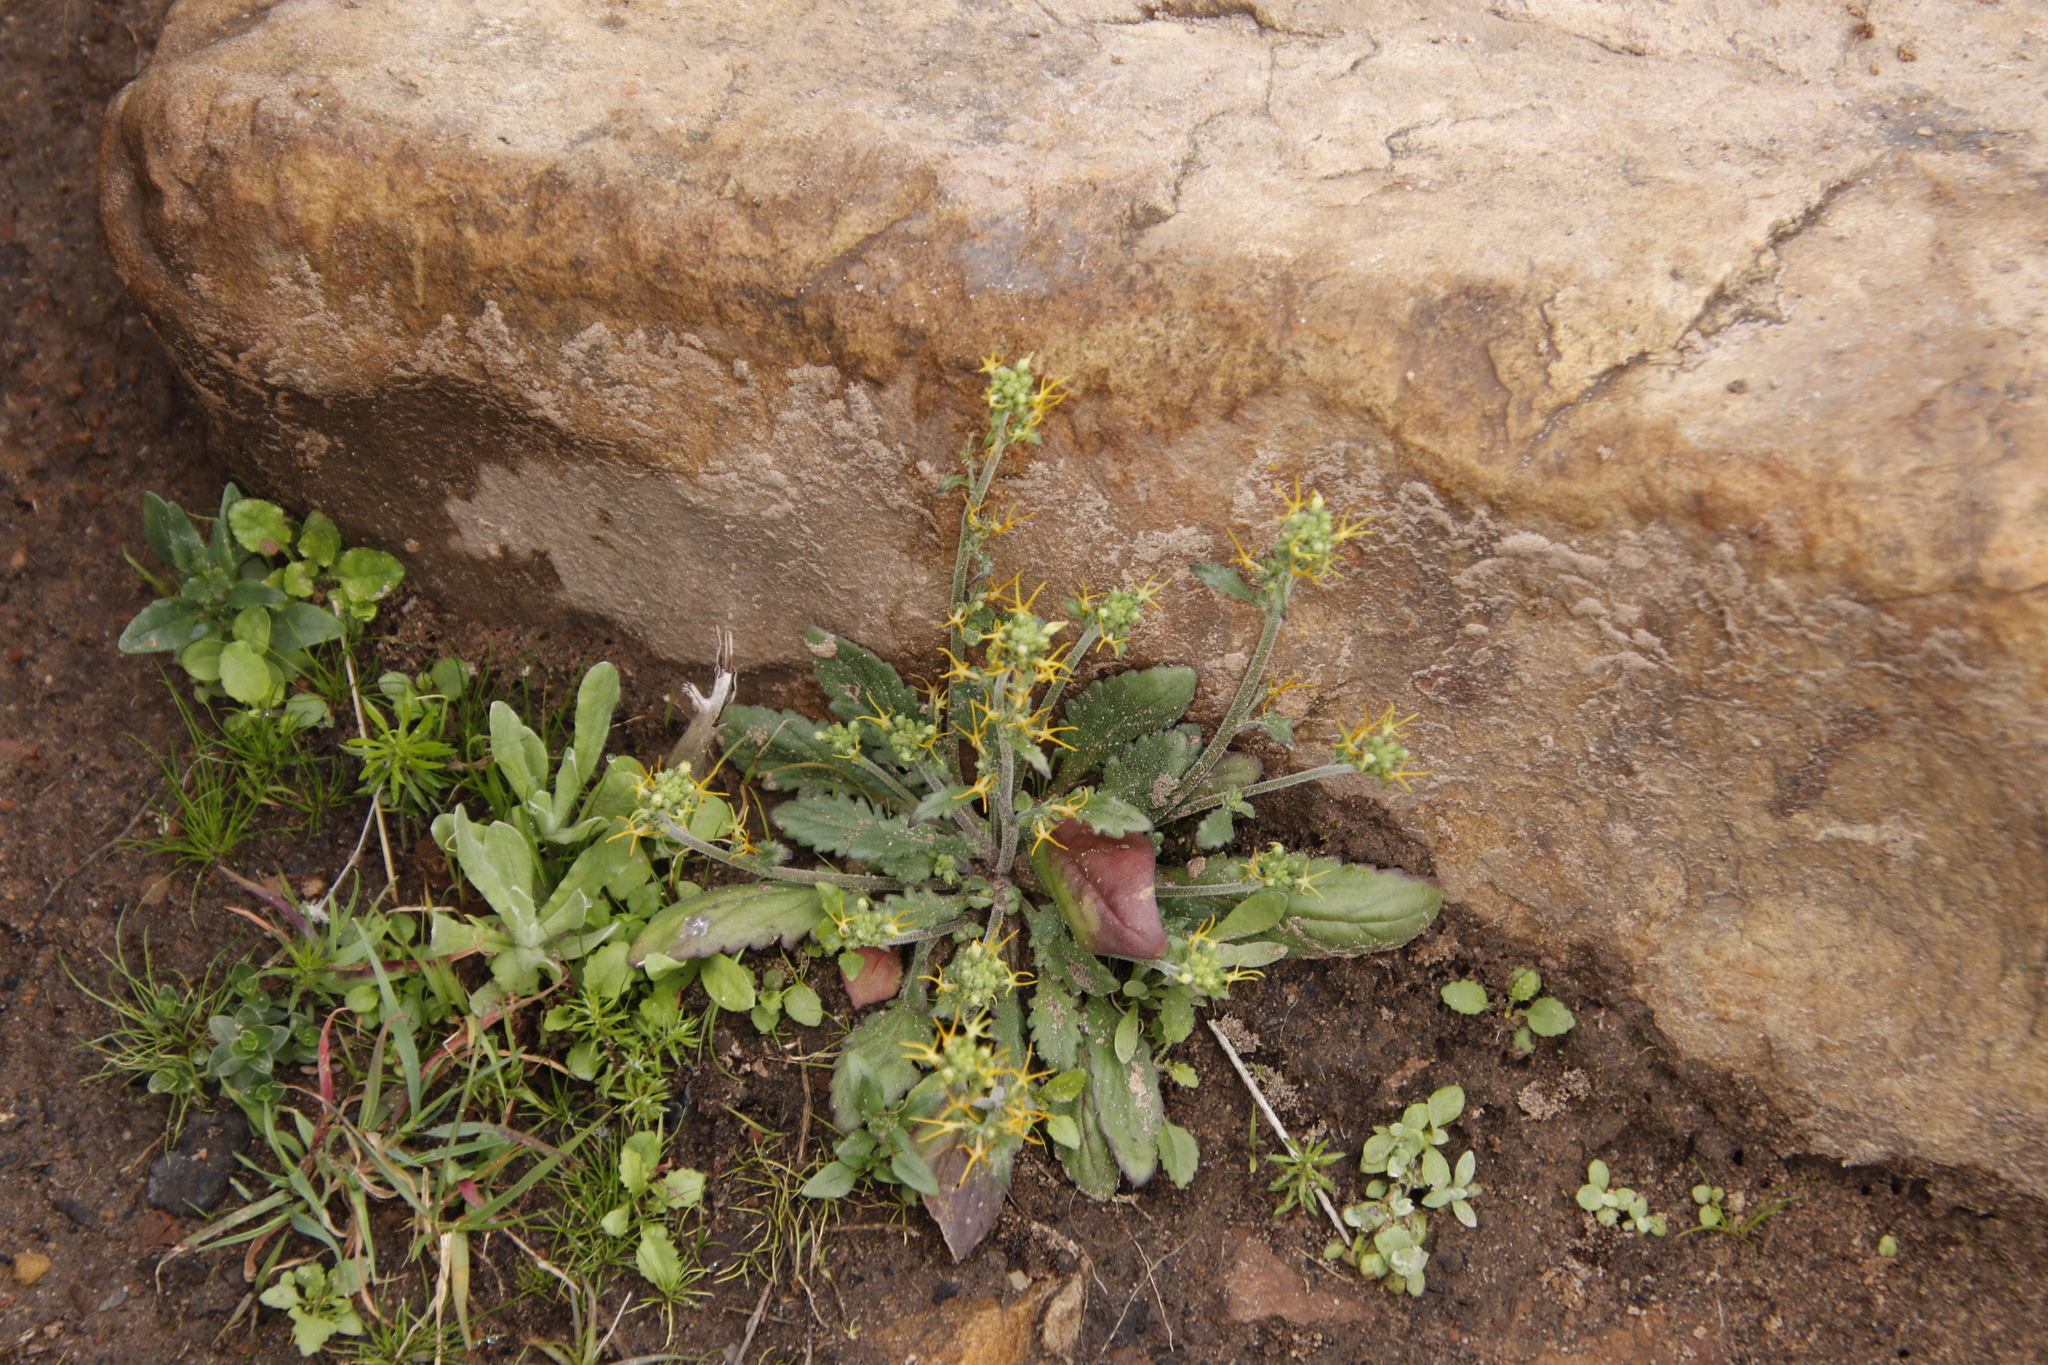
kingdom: Plantae
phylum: Tracheophyta
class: Magnoliopsida
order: Lamiales
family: Scrophulariaceae
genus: Manulea
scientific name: Manulea cheiranthus
